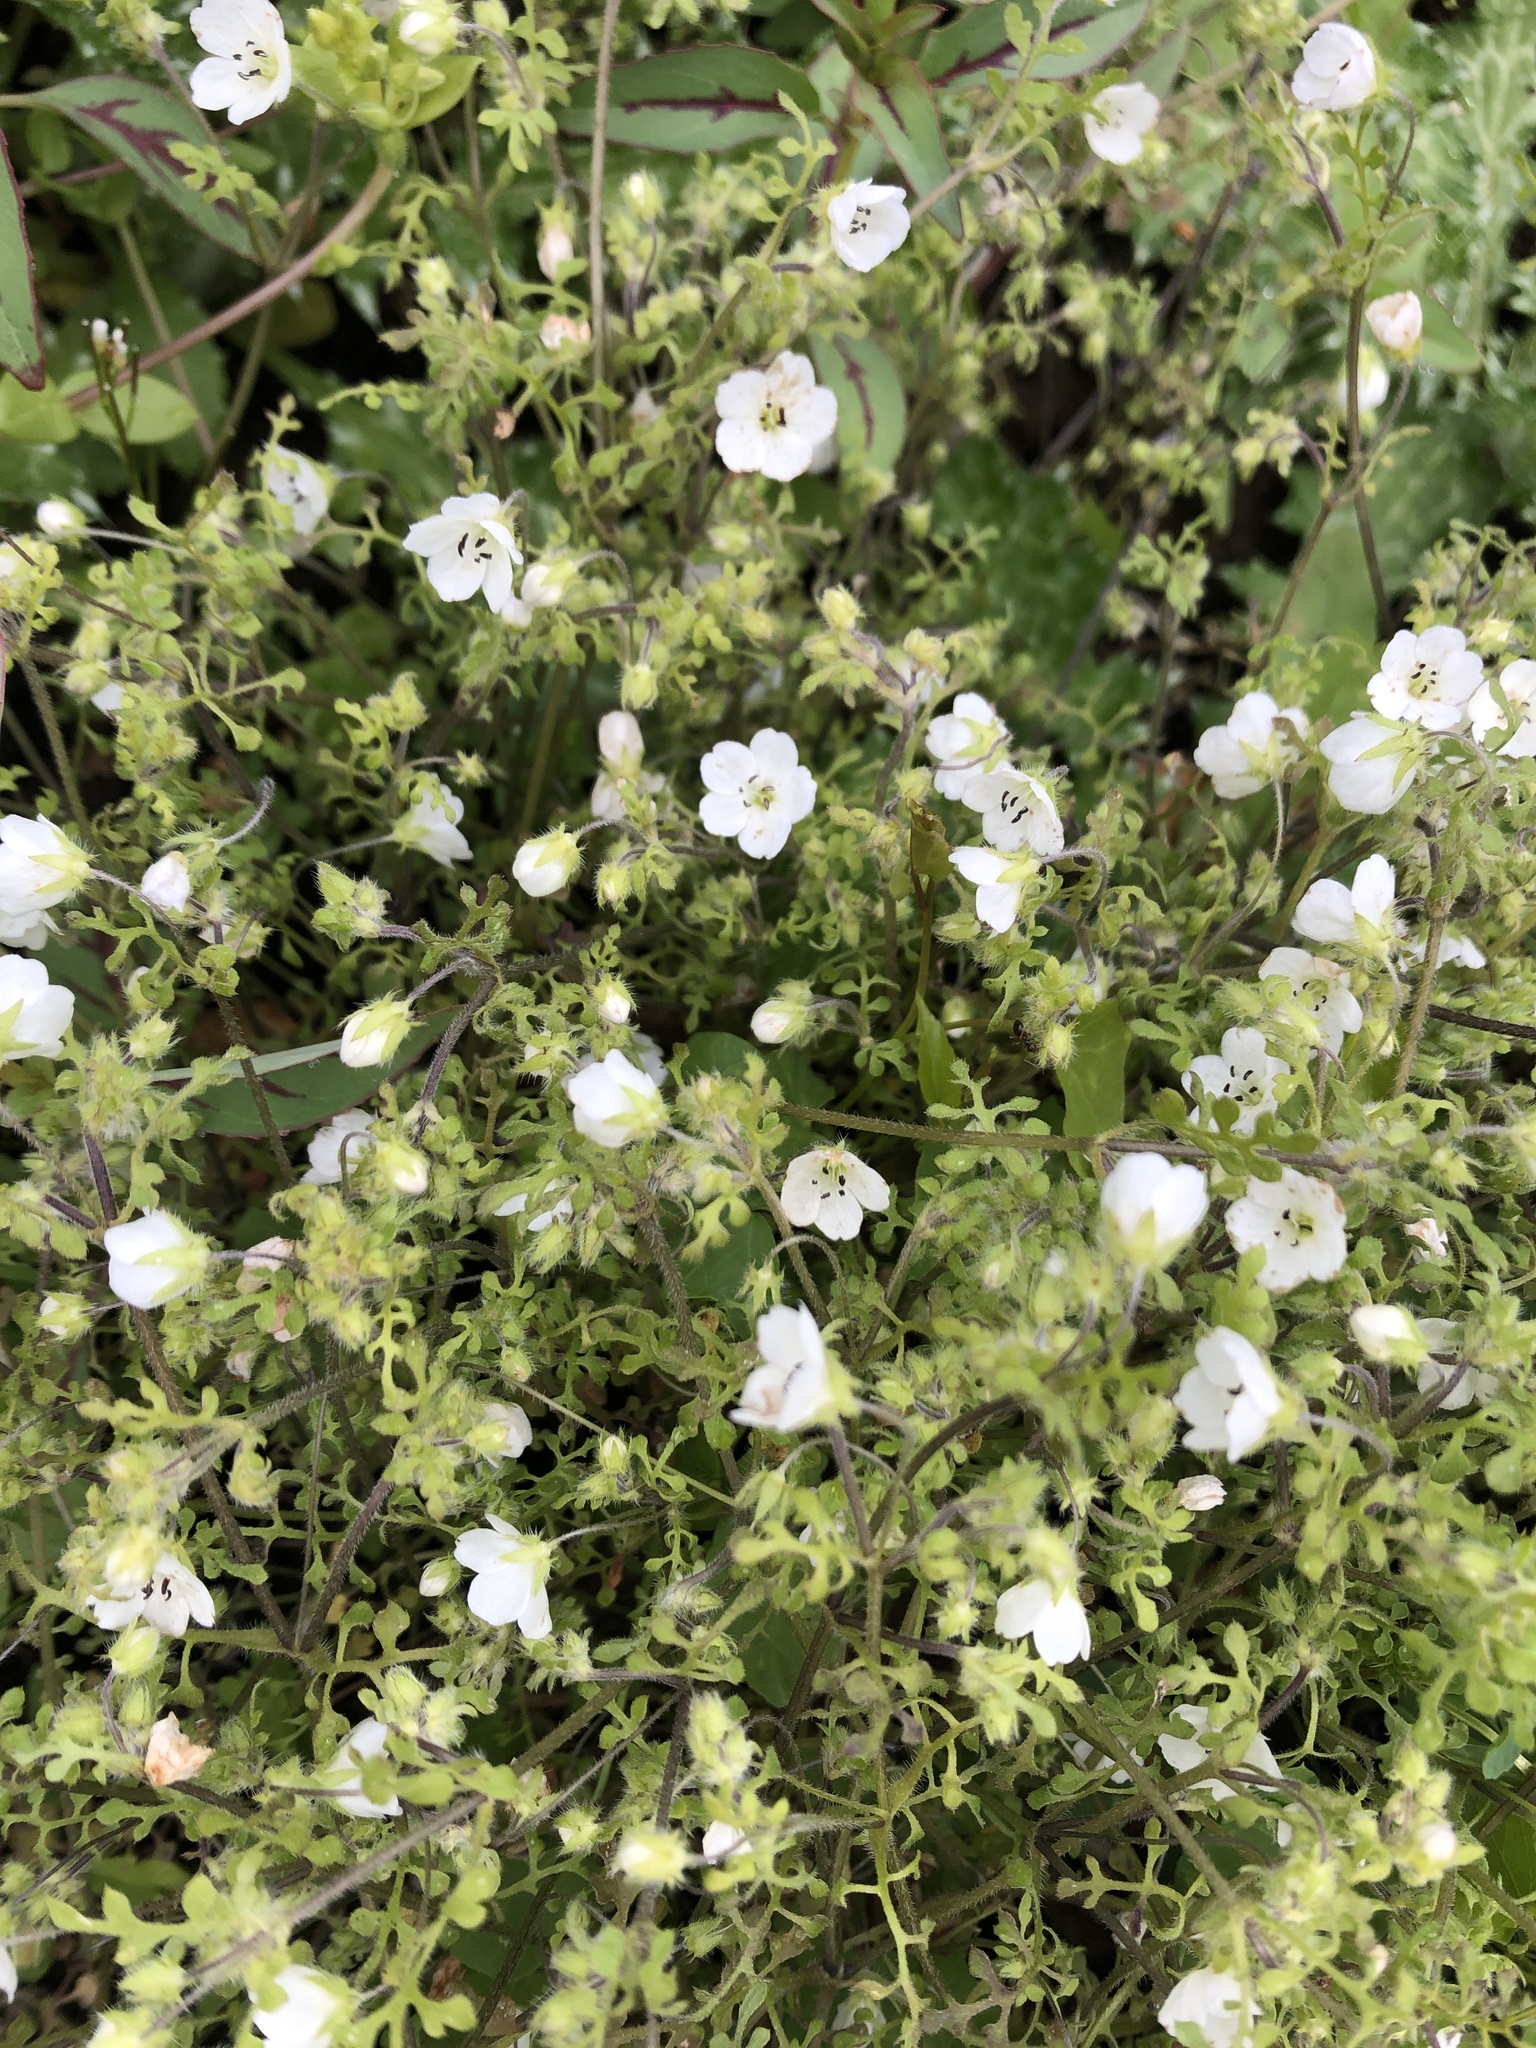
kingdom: Plantae
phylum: Tracheophyta
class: Magnoliopsida
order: Boraginales
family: Hydrophyllaceae
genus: Nemophila
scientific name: Nemophila heterophylla
